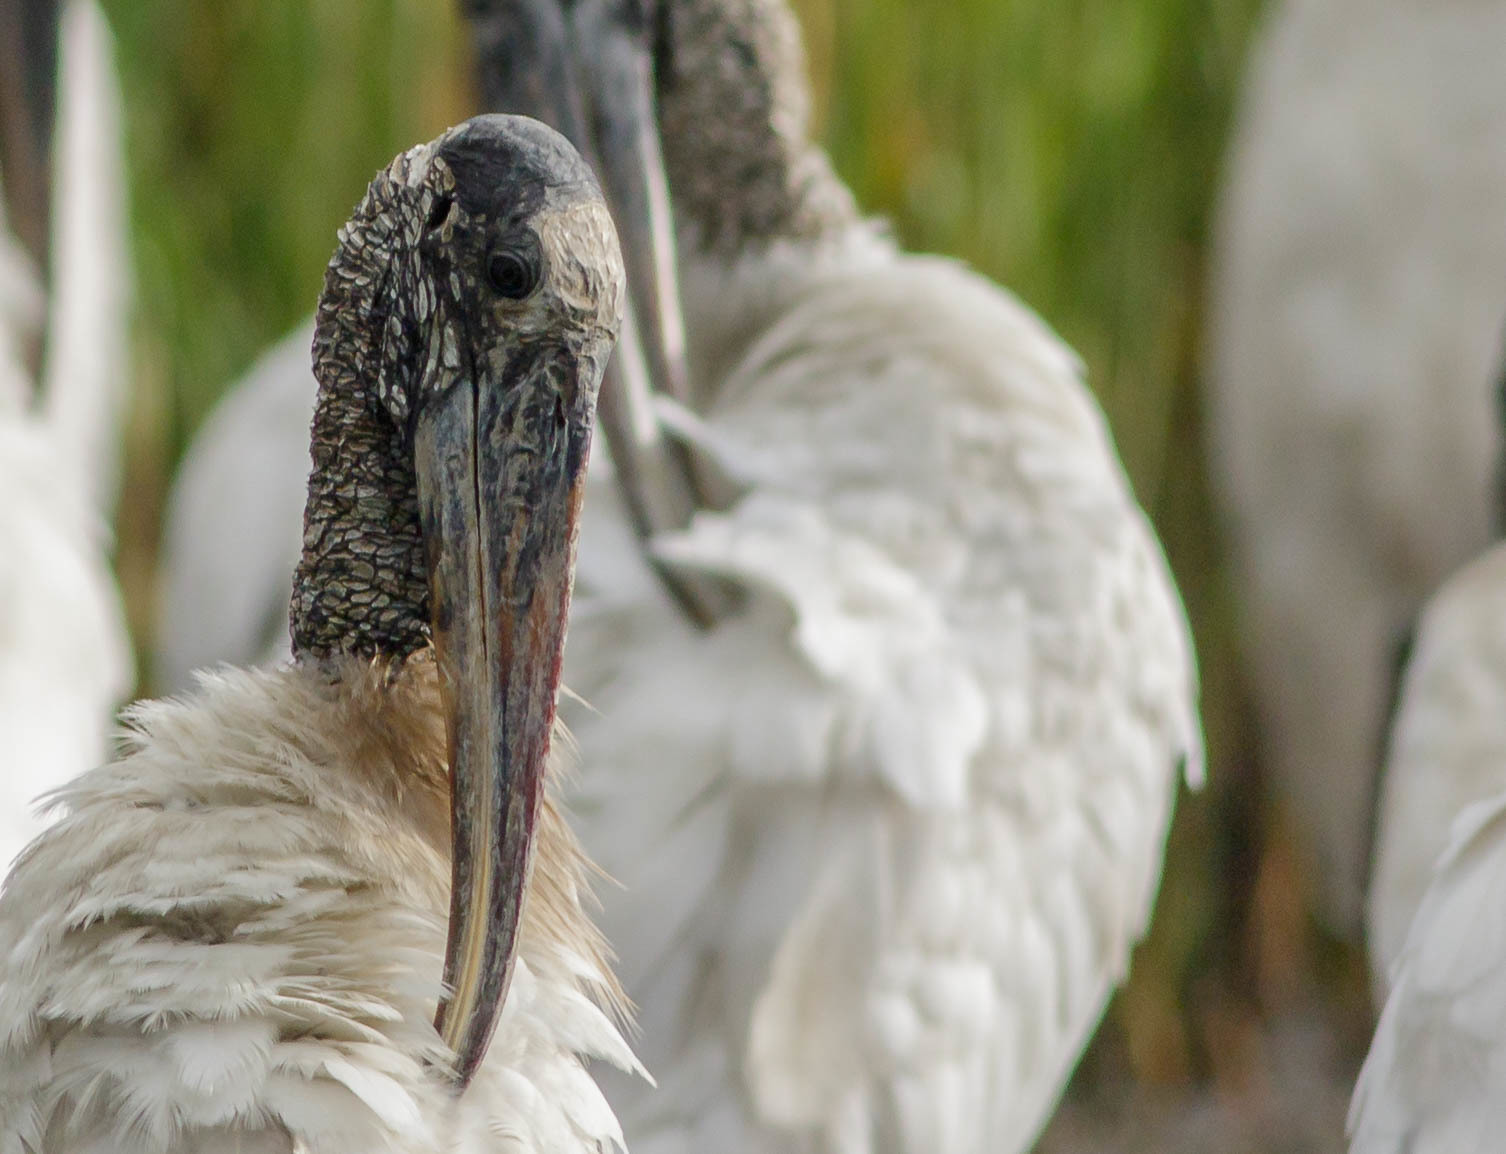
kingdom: Animalia
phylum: Chordata
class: Aves
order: Ciconiiformes
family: Ciconiidae
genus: Mycteria
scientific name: Mycteria americana
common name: Wood stork
